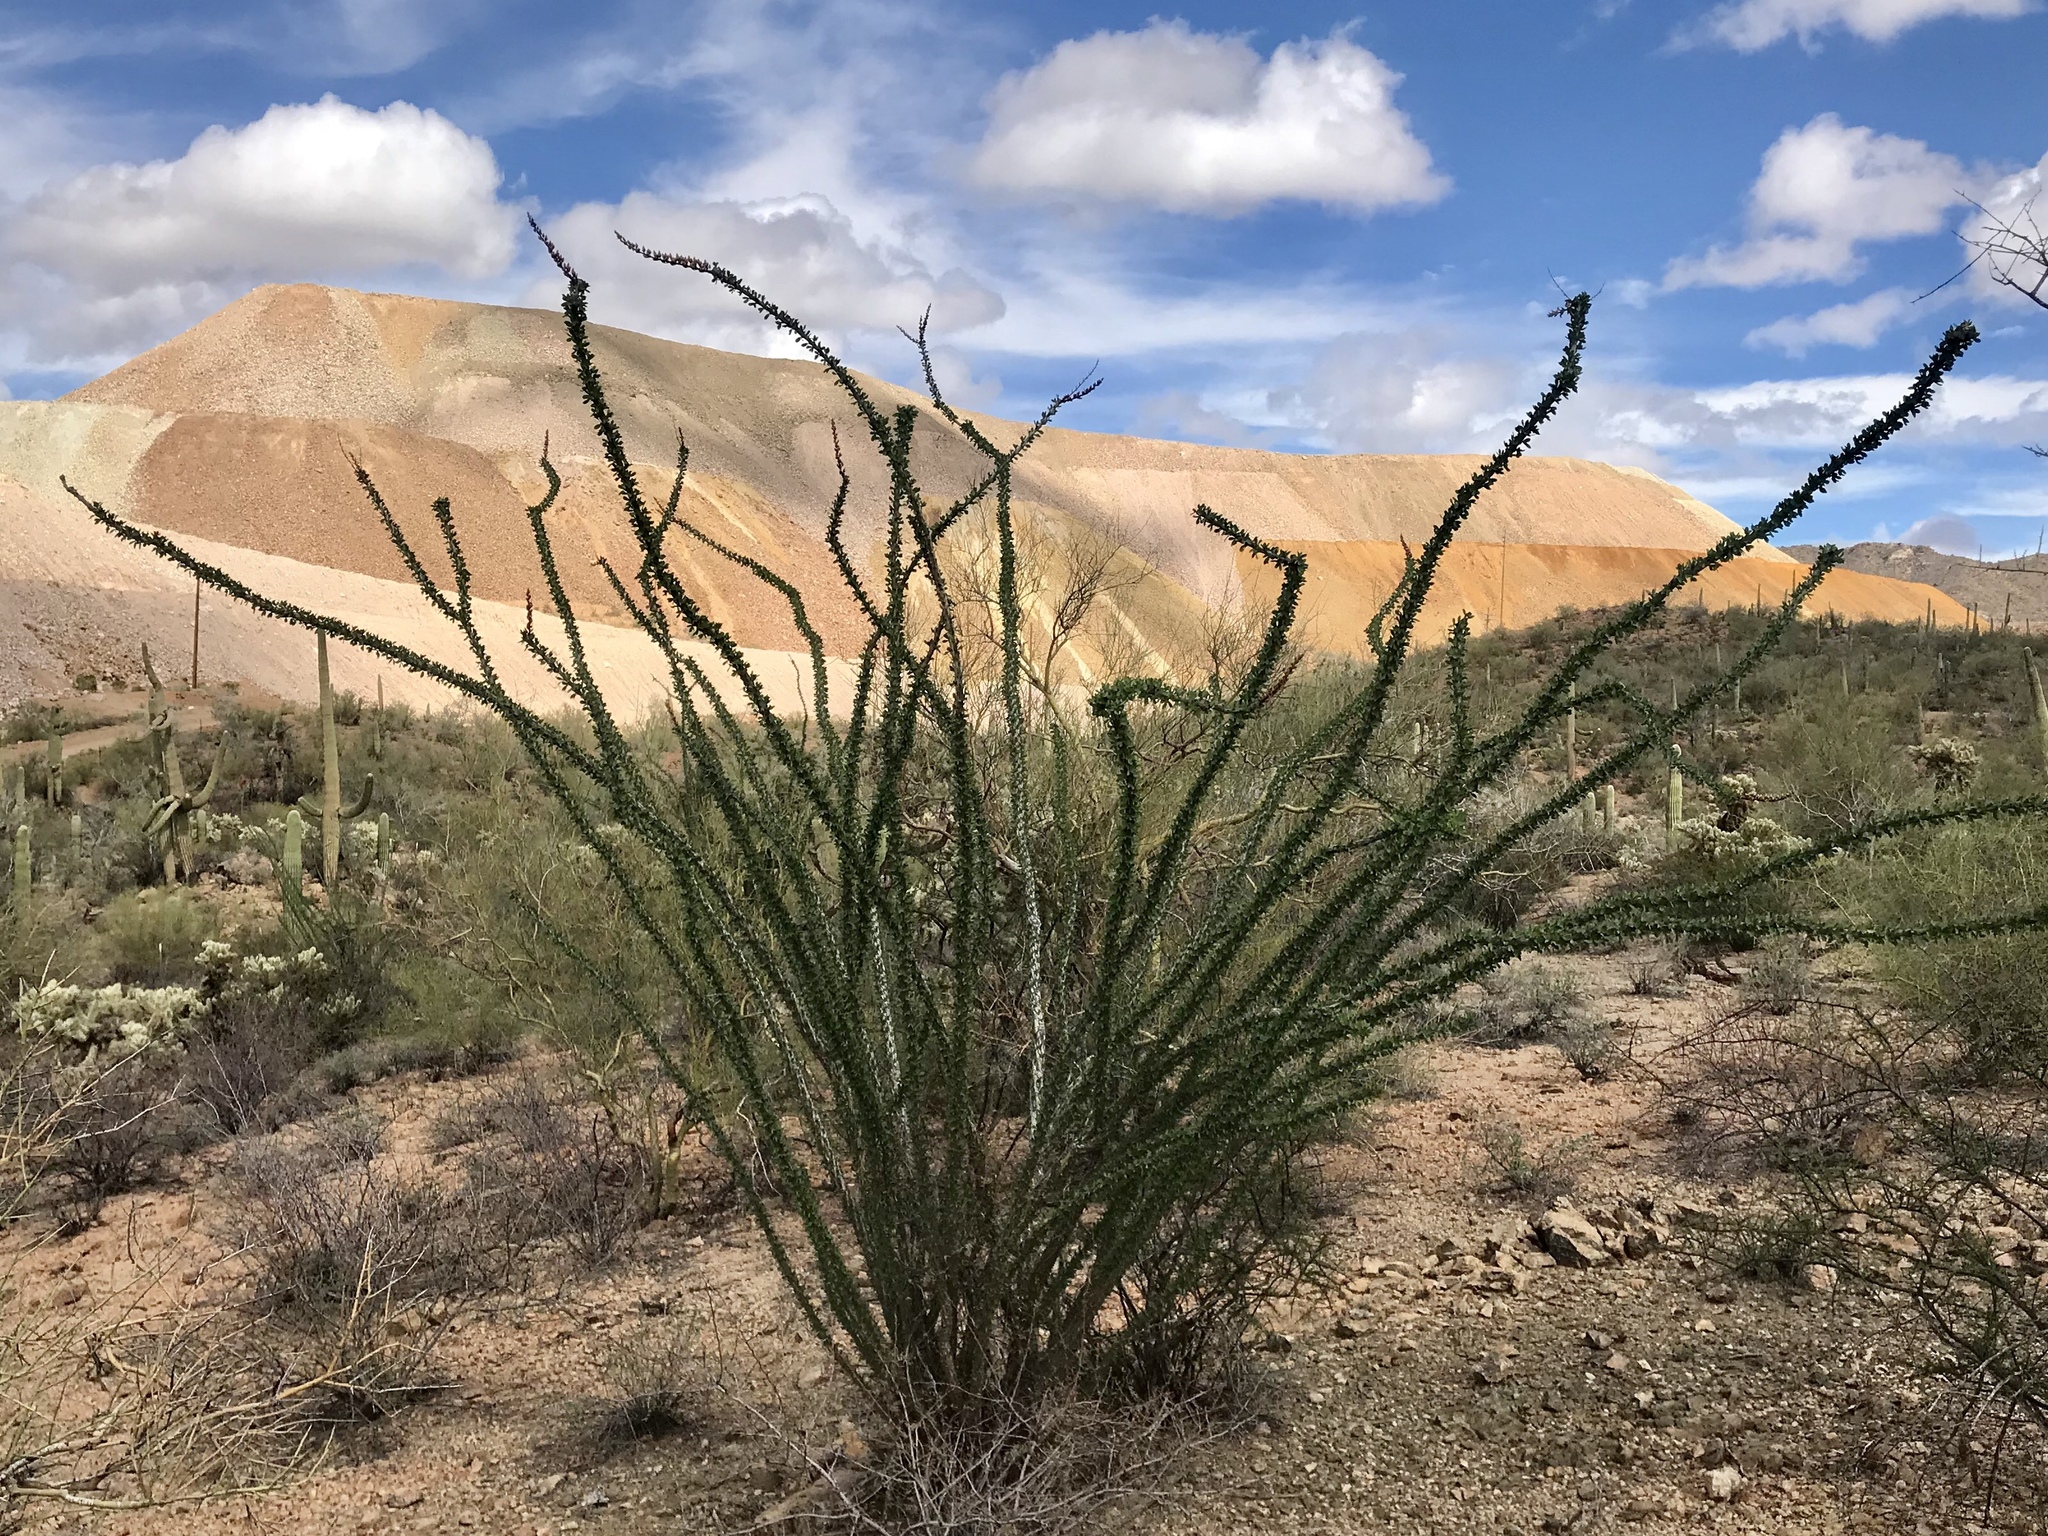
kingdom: Plantae
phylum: Tracheophyta
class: Magnoliopsida
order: Ericales
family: Fouquieriaceae
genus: Fouquieria
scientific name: Fouquieria splendens
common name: Vine-cactus
